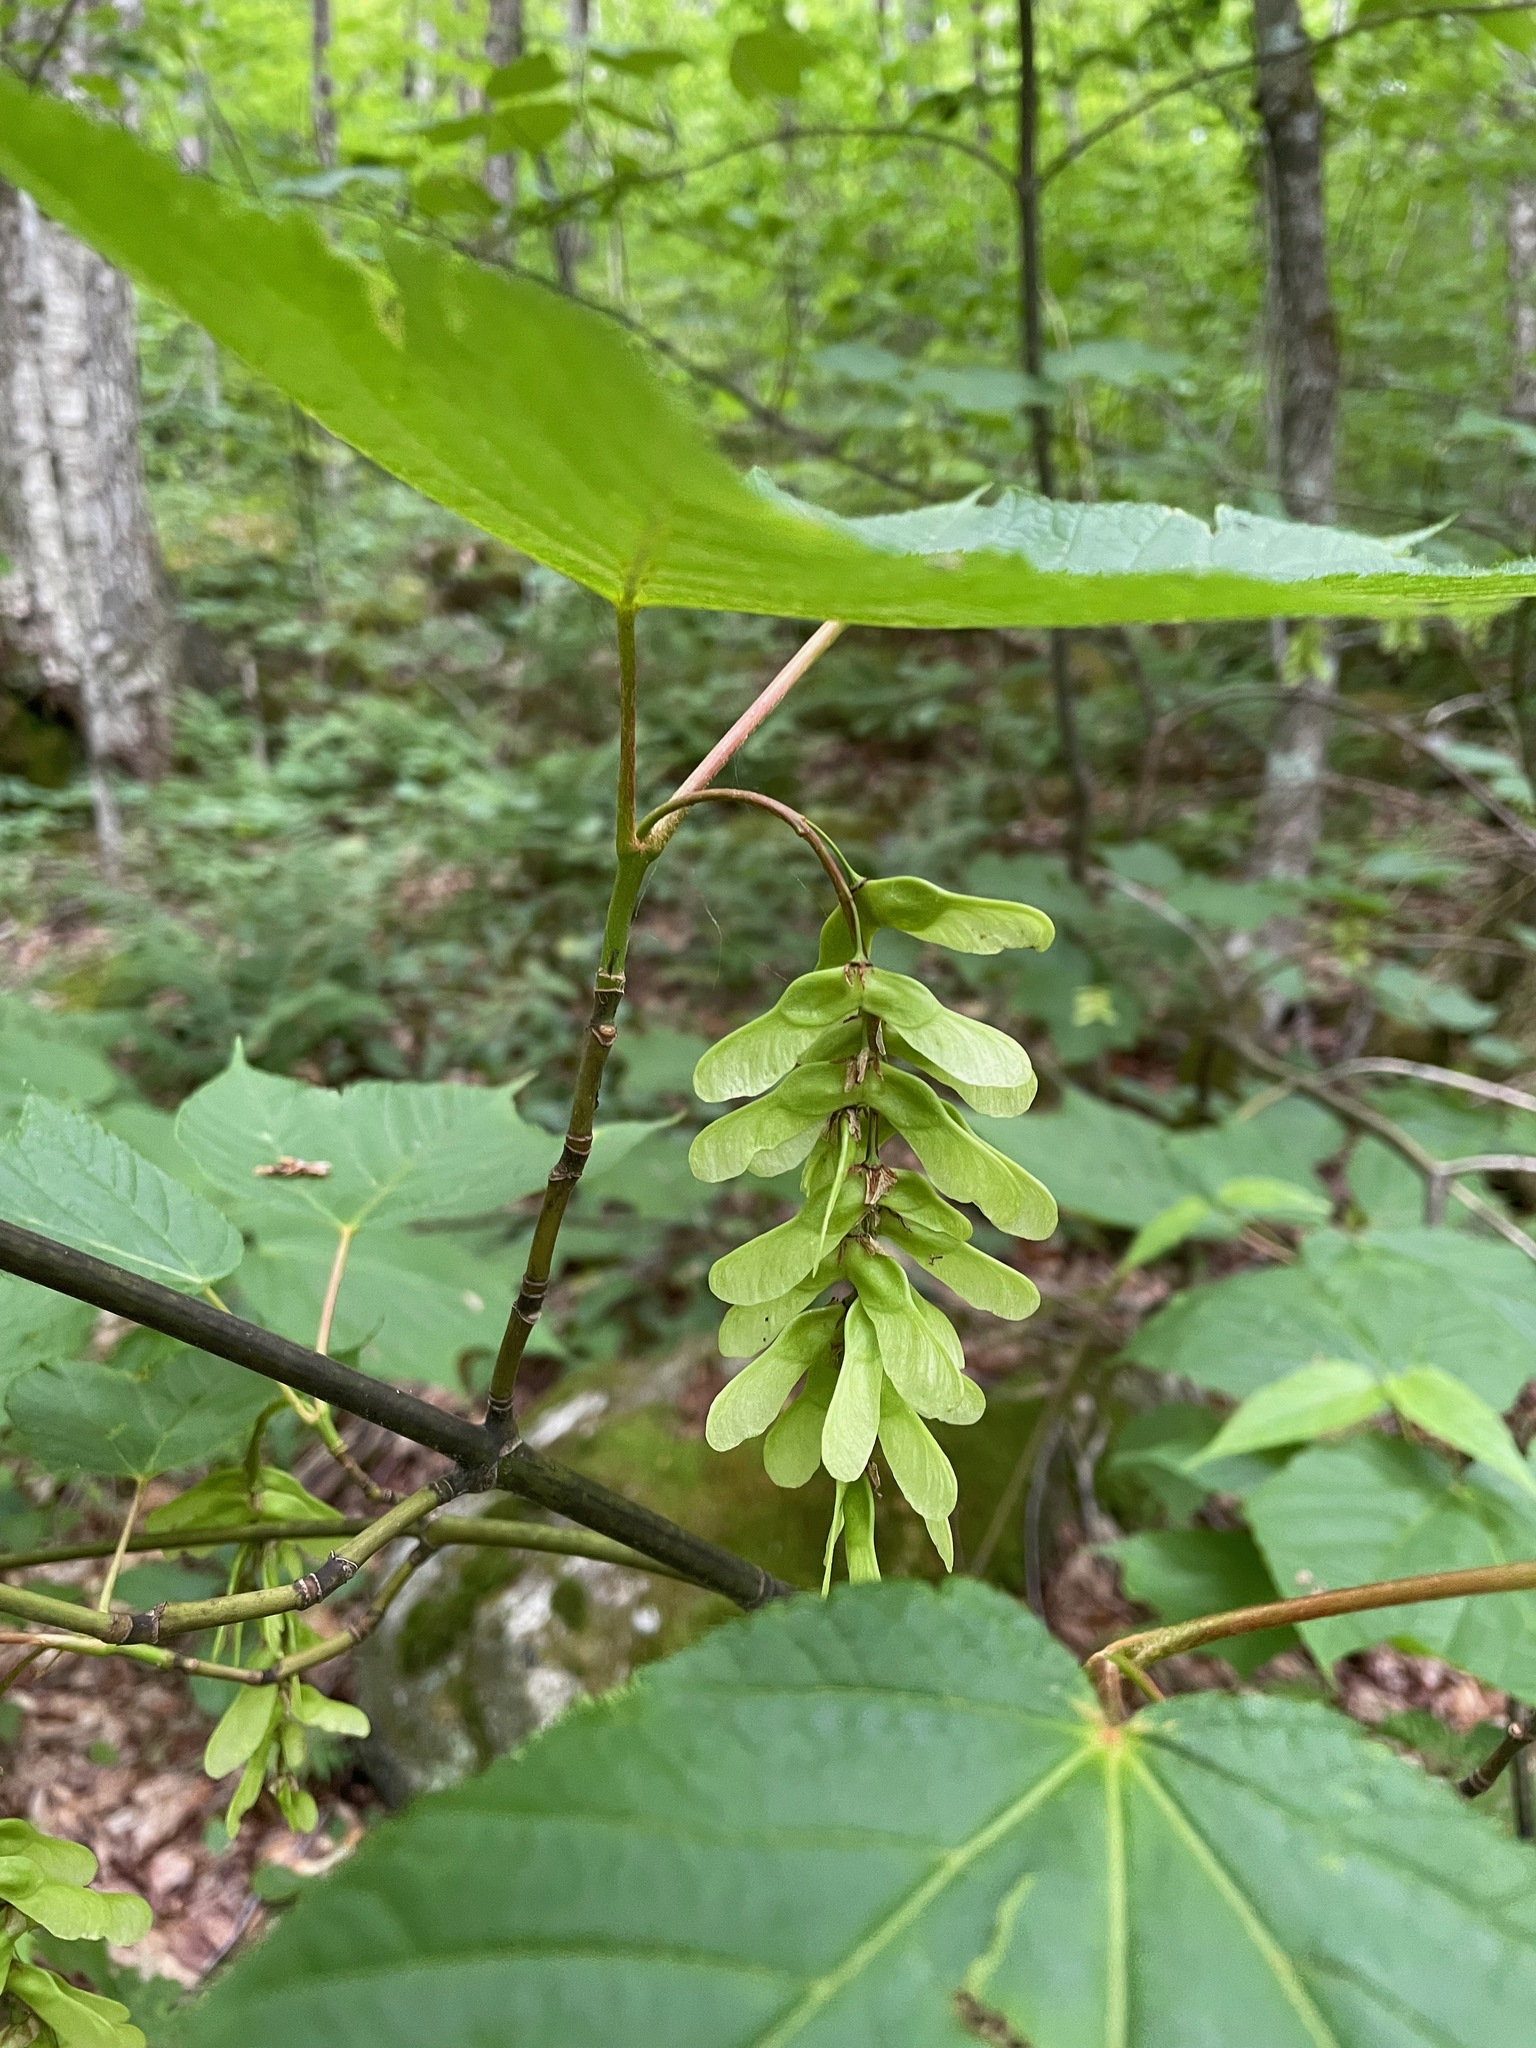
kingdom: Plantae
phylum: Tracheophyta
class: Magnoliopsida
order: Sapindales
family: Sapindaceae
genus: Acer
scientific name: Acer pensylvanicum
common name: Moosewood
